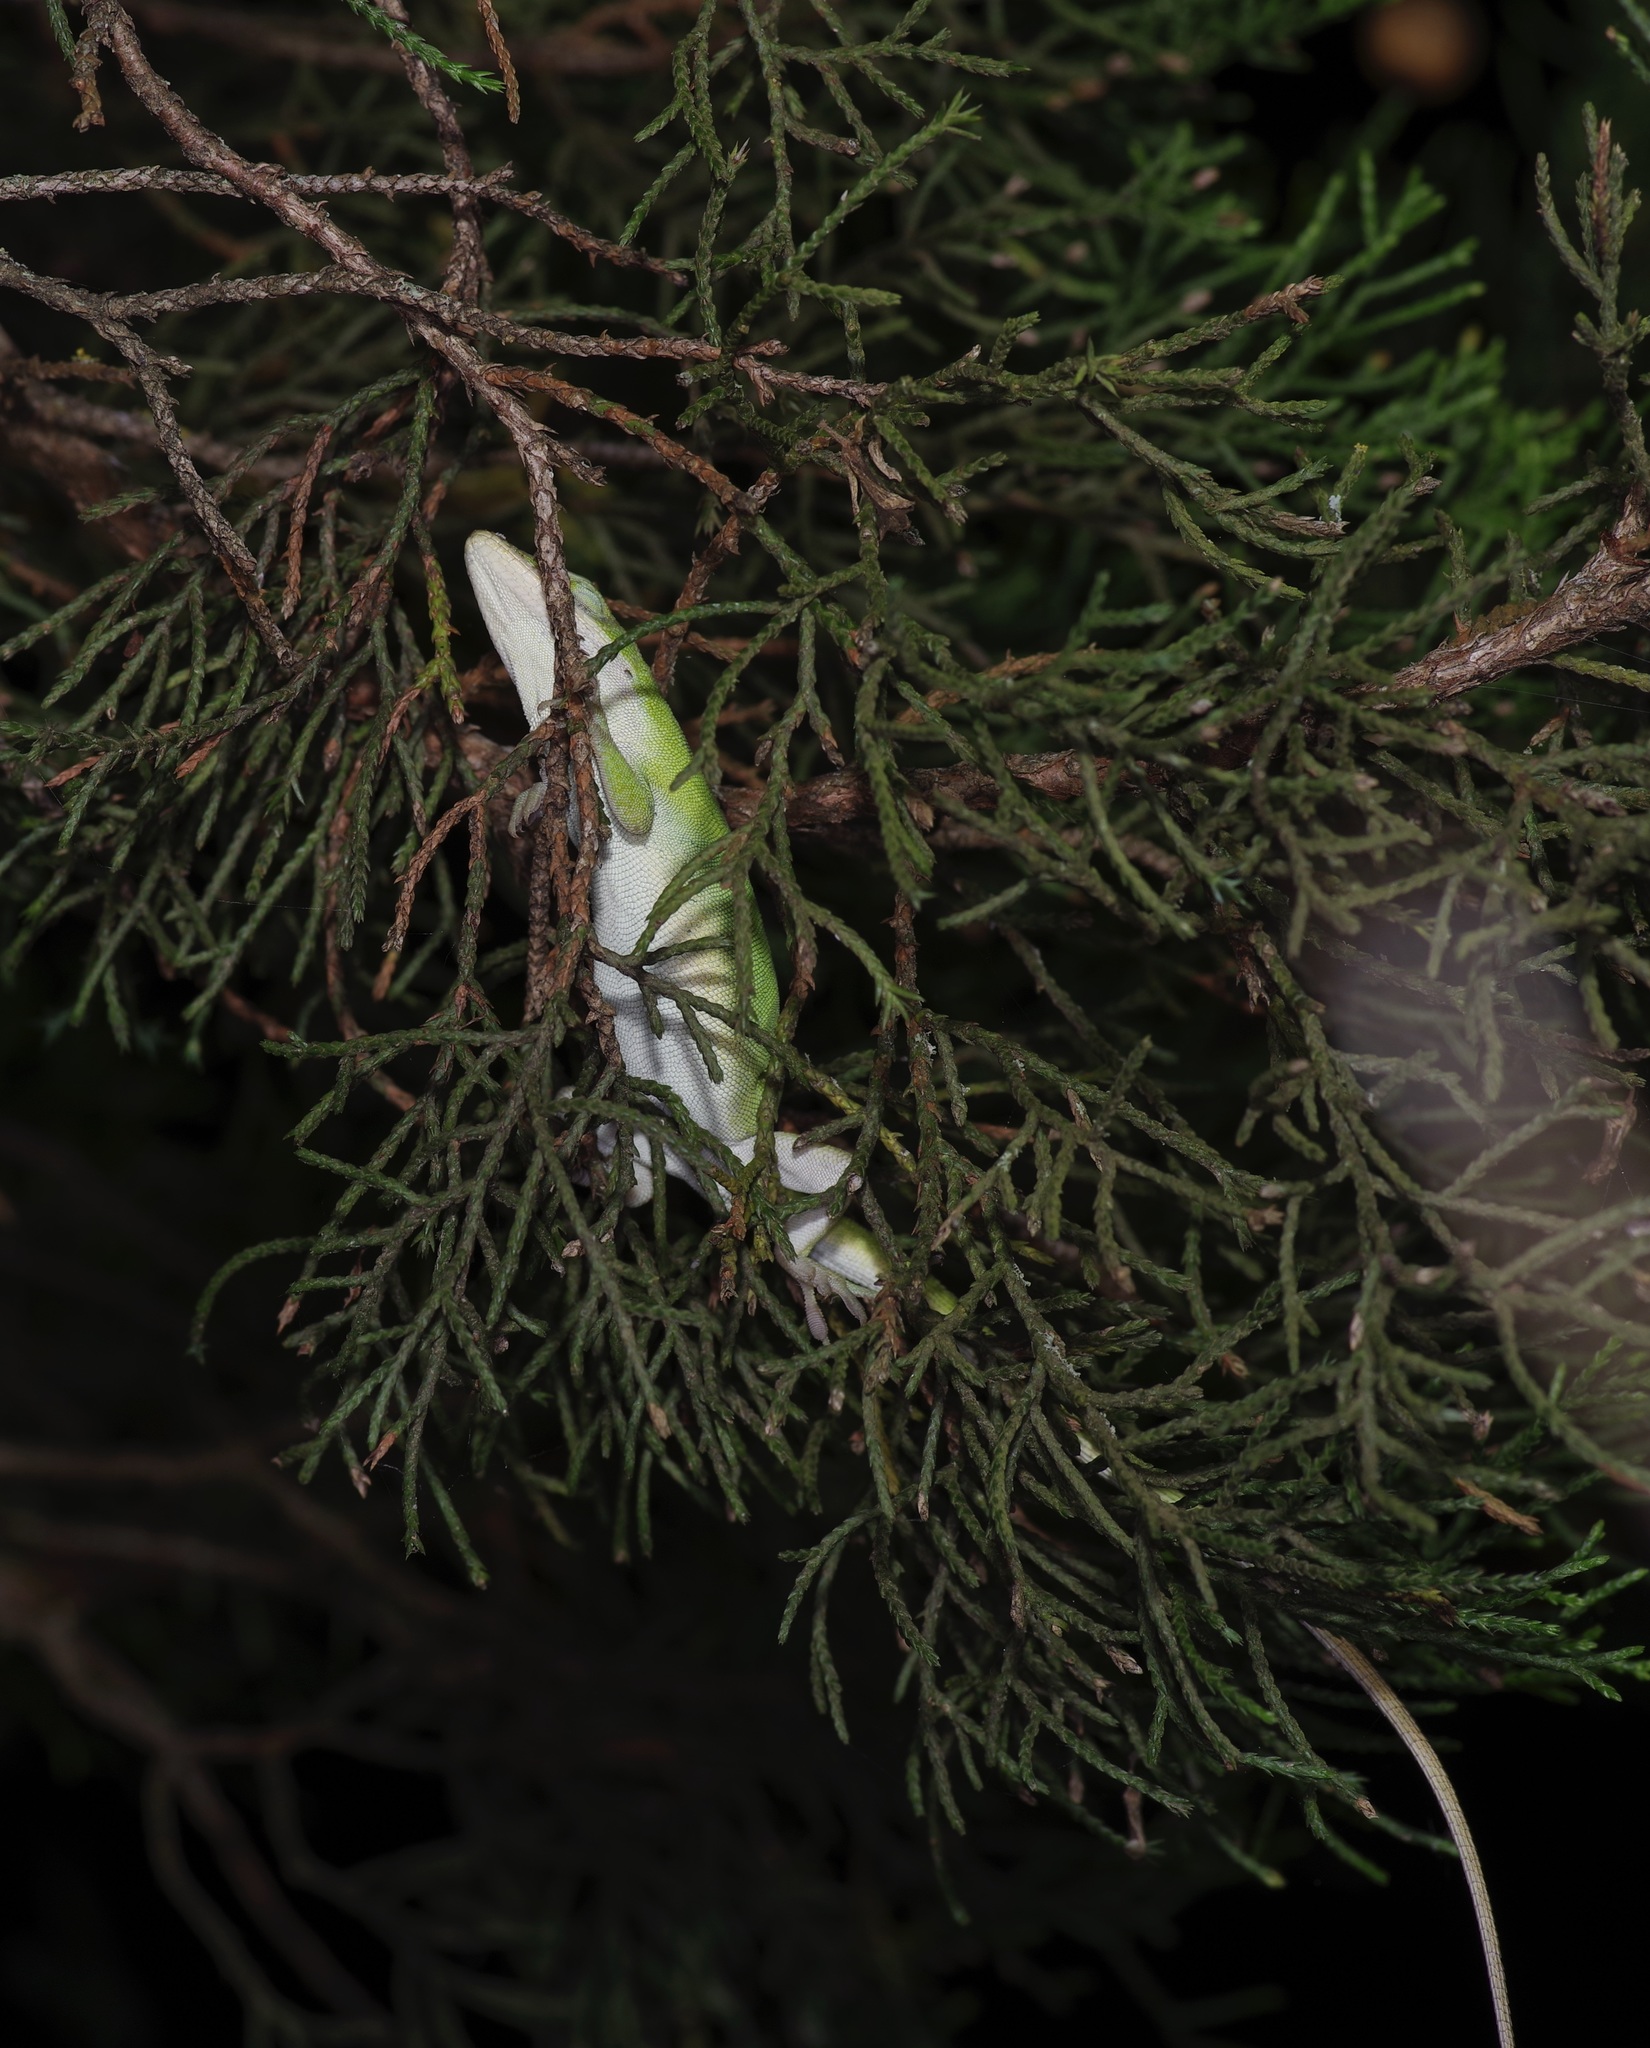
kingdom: Animalia
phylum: Chordata
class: Squamata
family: Dactyloidae
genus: Anolis
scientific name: Anolis carolinensis
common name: Green anole
